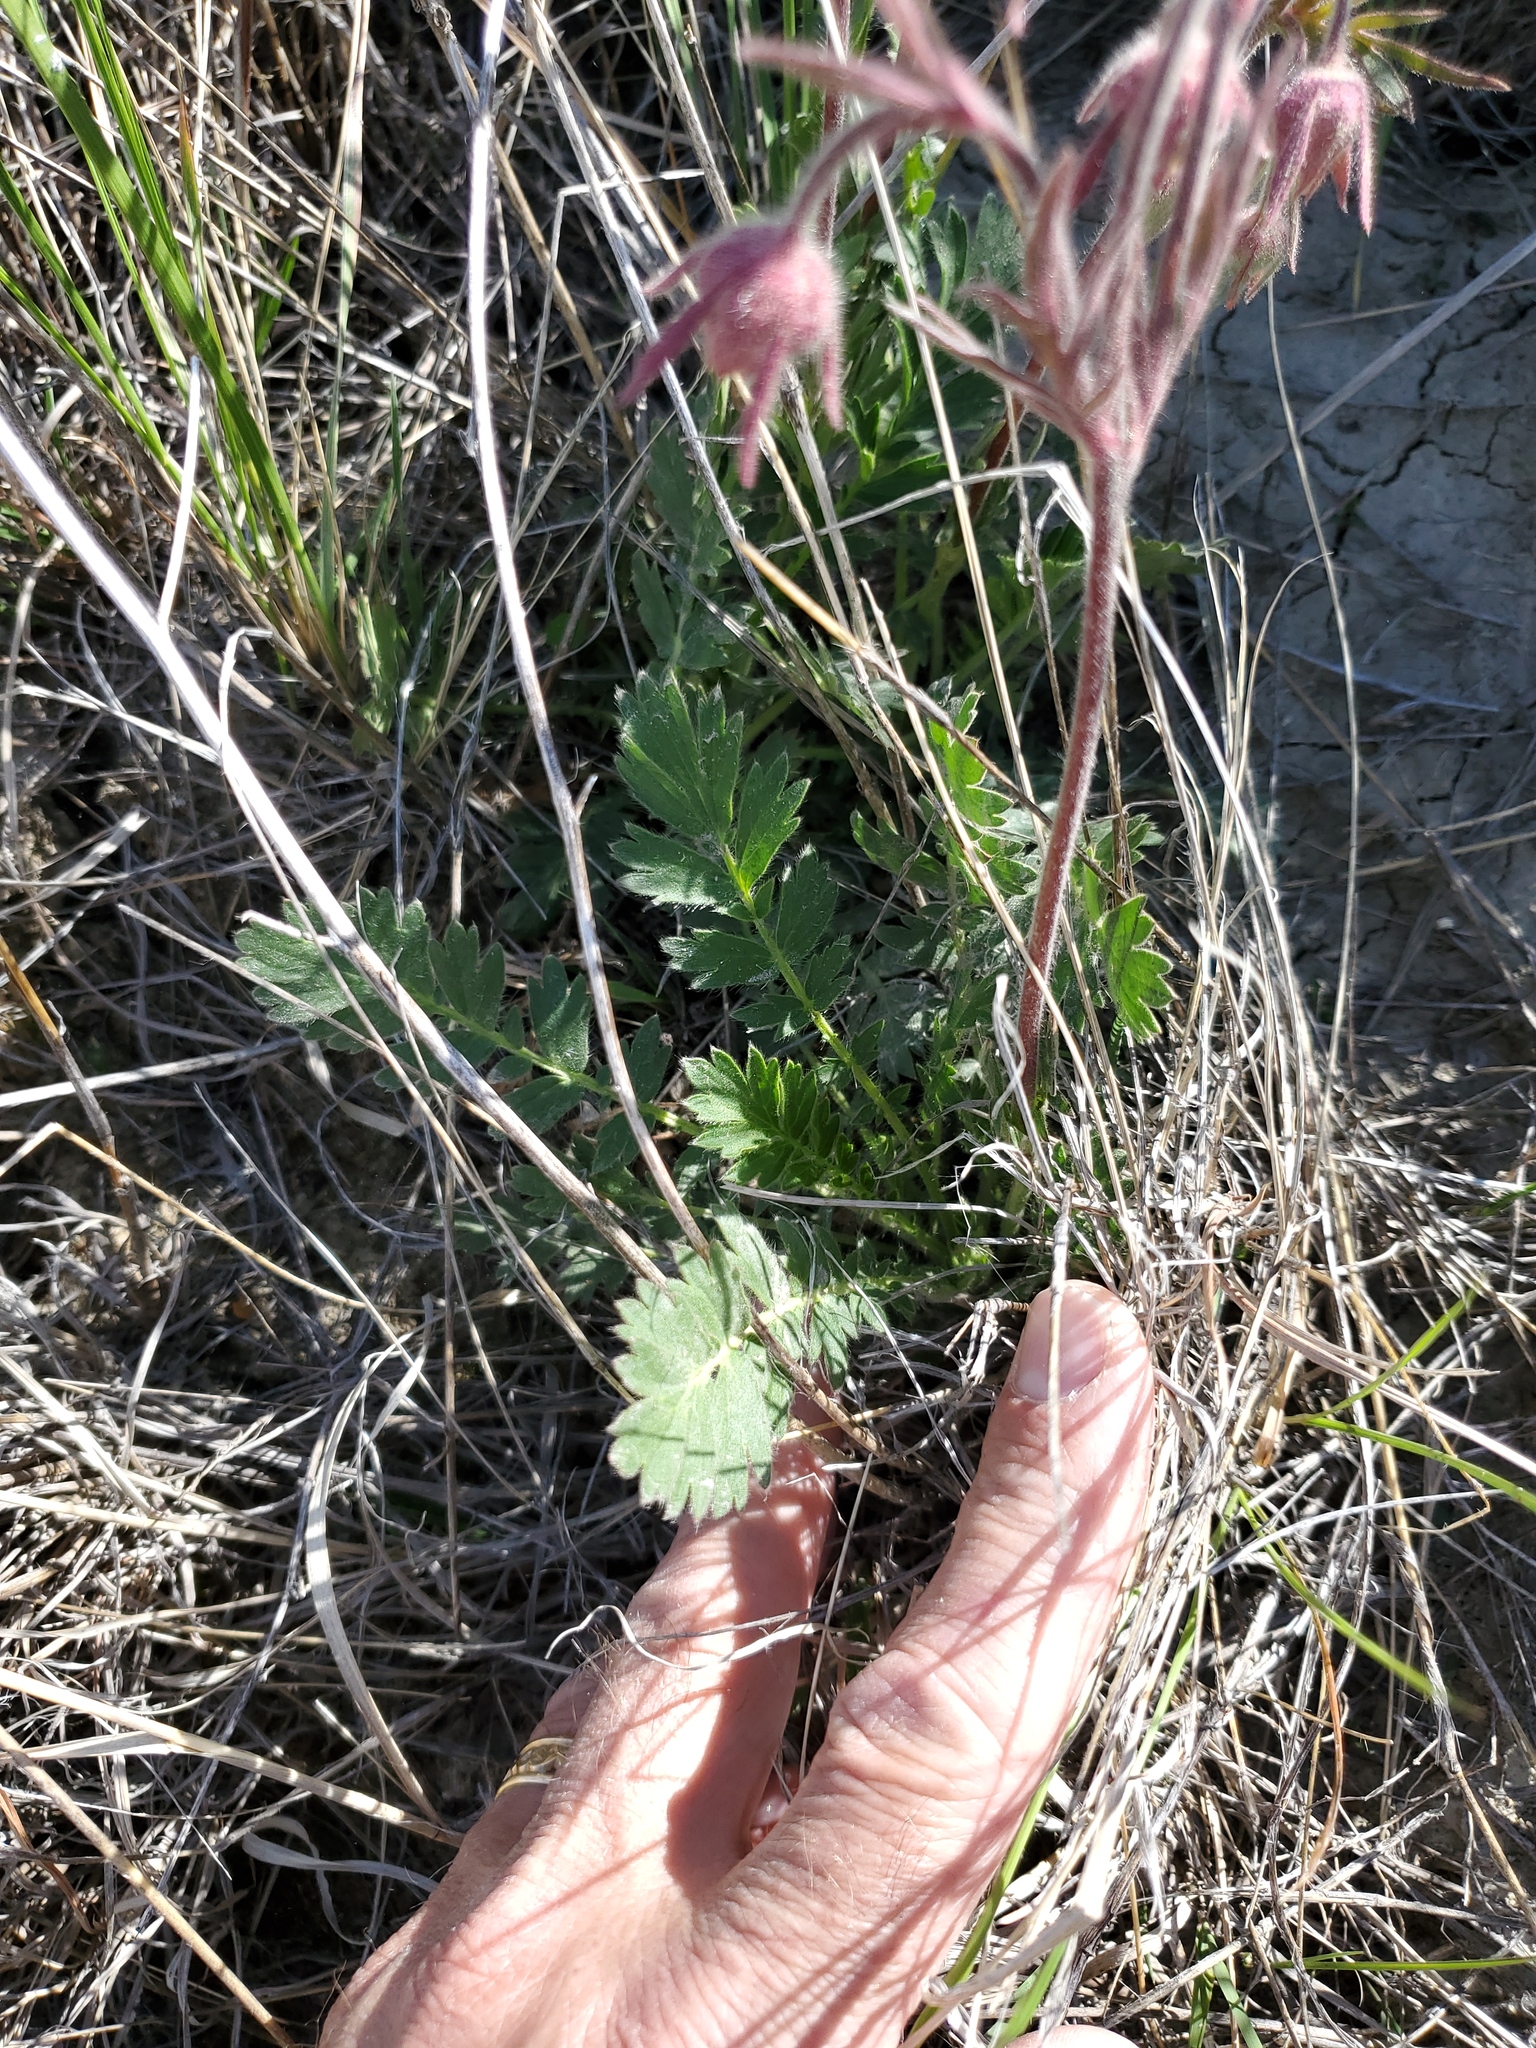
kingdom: Plantae
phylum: Tracheophyta
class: Magnoliopsida
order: Rosales
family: Rosaceae
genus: Geum
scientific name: Geum triflorum
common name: Old man's whiskers
